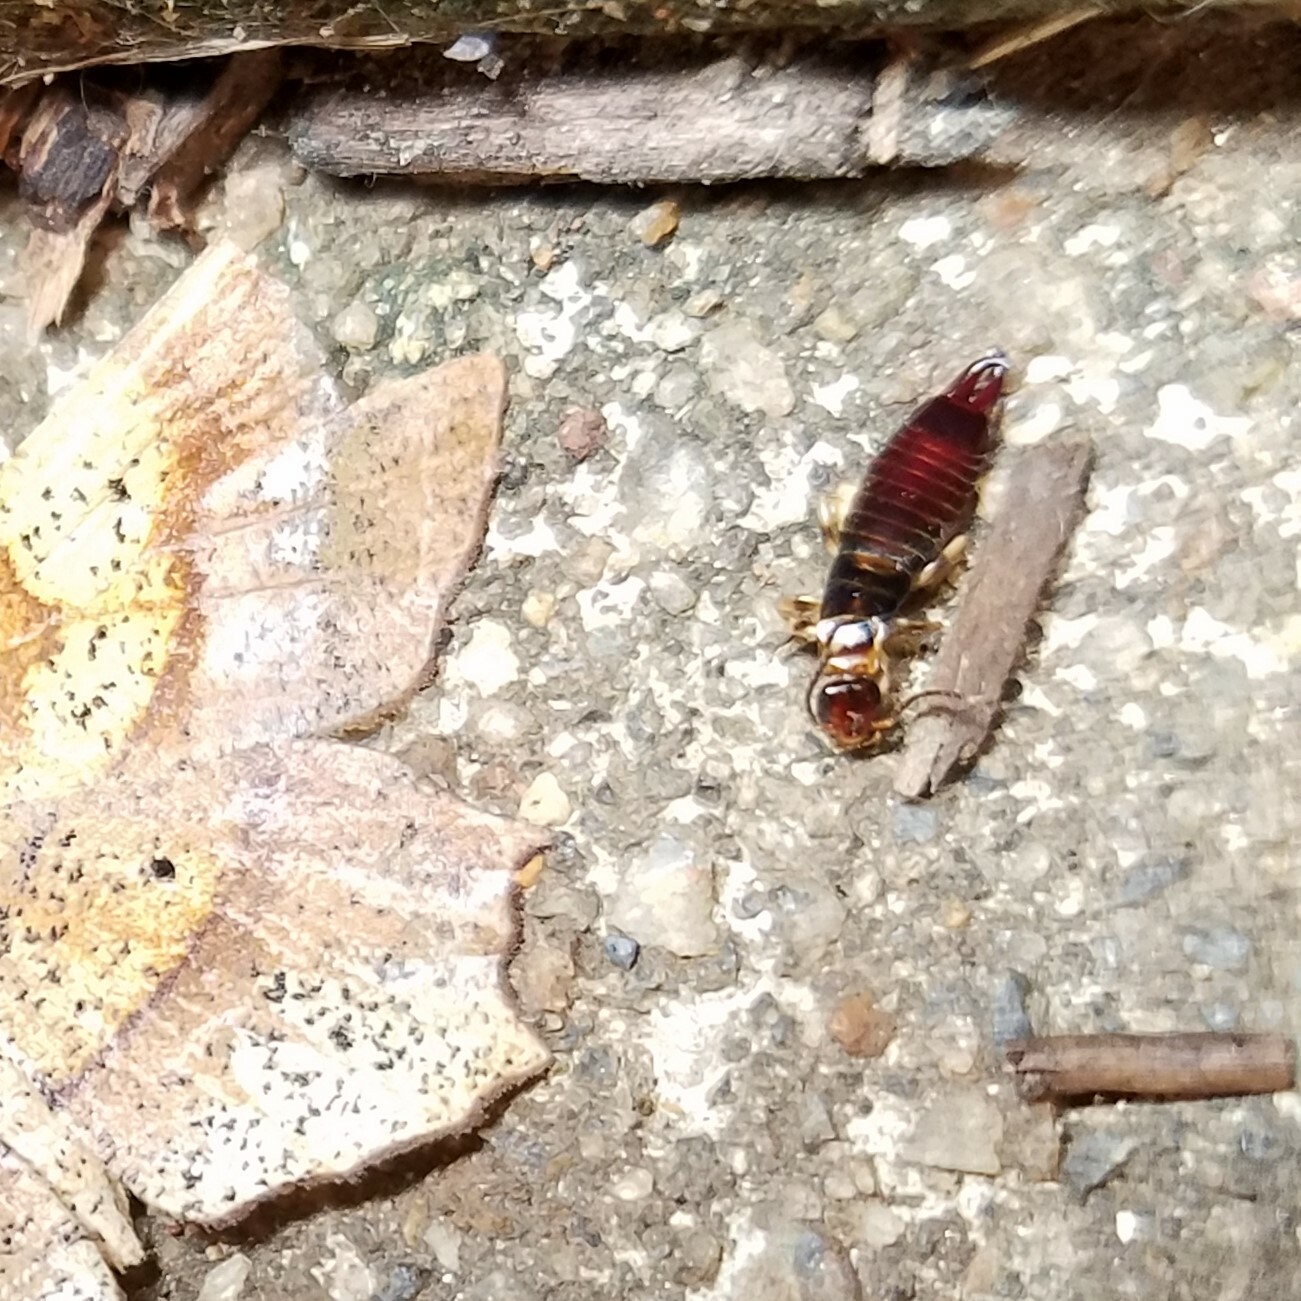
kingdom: Animalia
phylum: Arthropoda
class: Insecta
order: Dermaptera
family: Anisolabididae
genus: Euborellia
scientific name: Euborellia annulipes
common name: Ringlegged earwig
